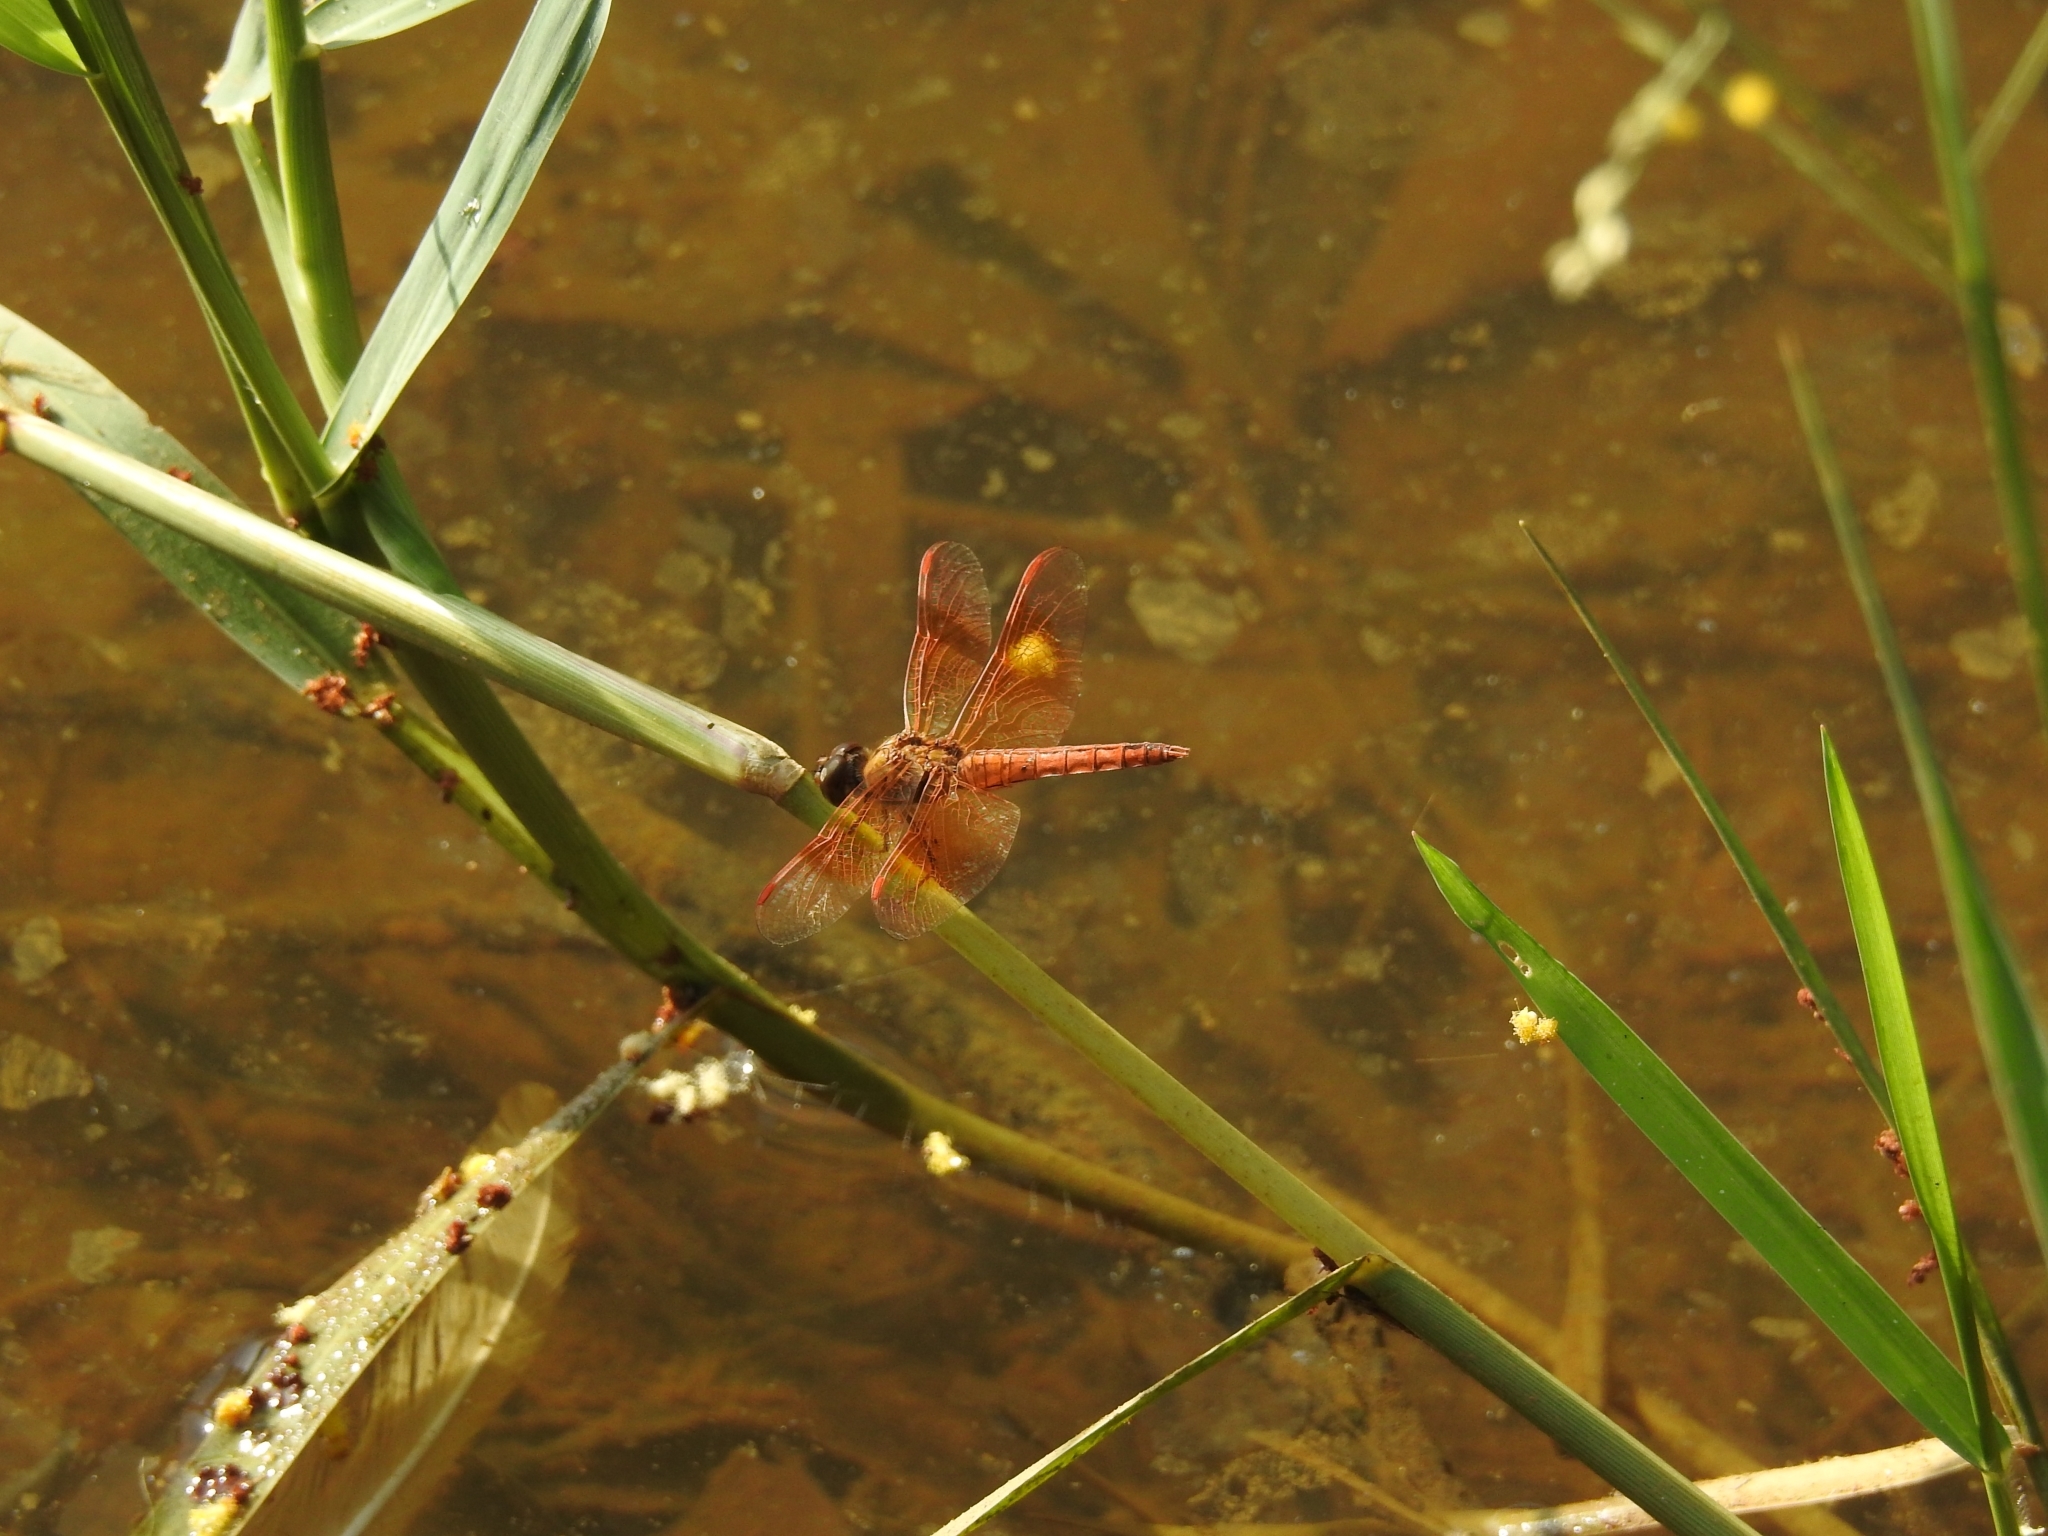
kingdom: Animalia
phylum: Arthropoda
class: Insecta
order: Odonata
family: Libellulidae
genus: Brachythemis
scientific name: Brachythemis contaminata
